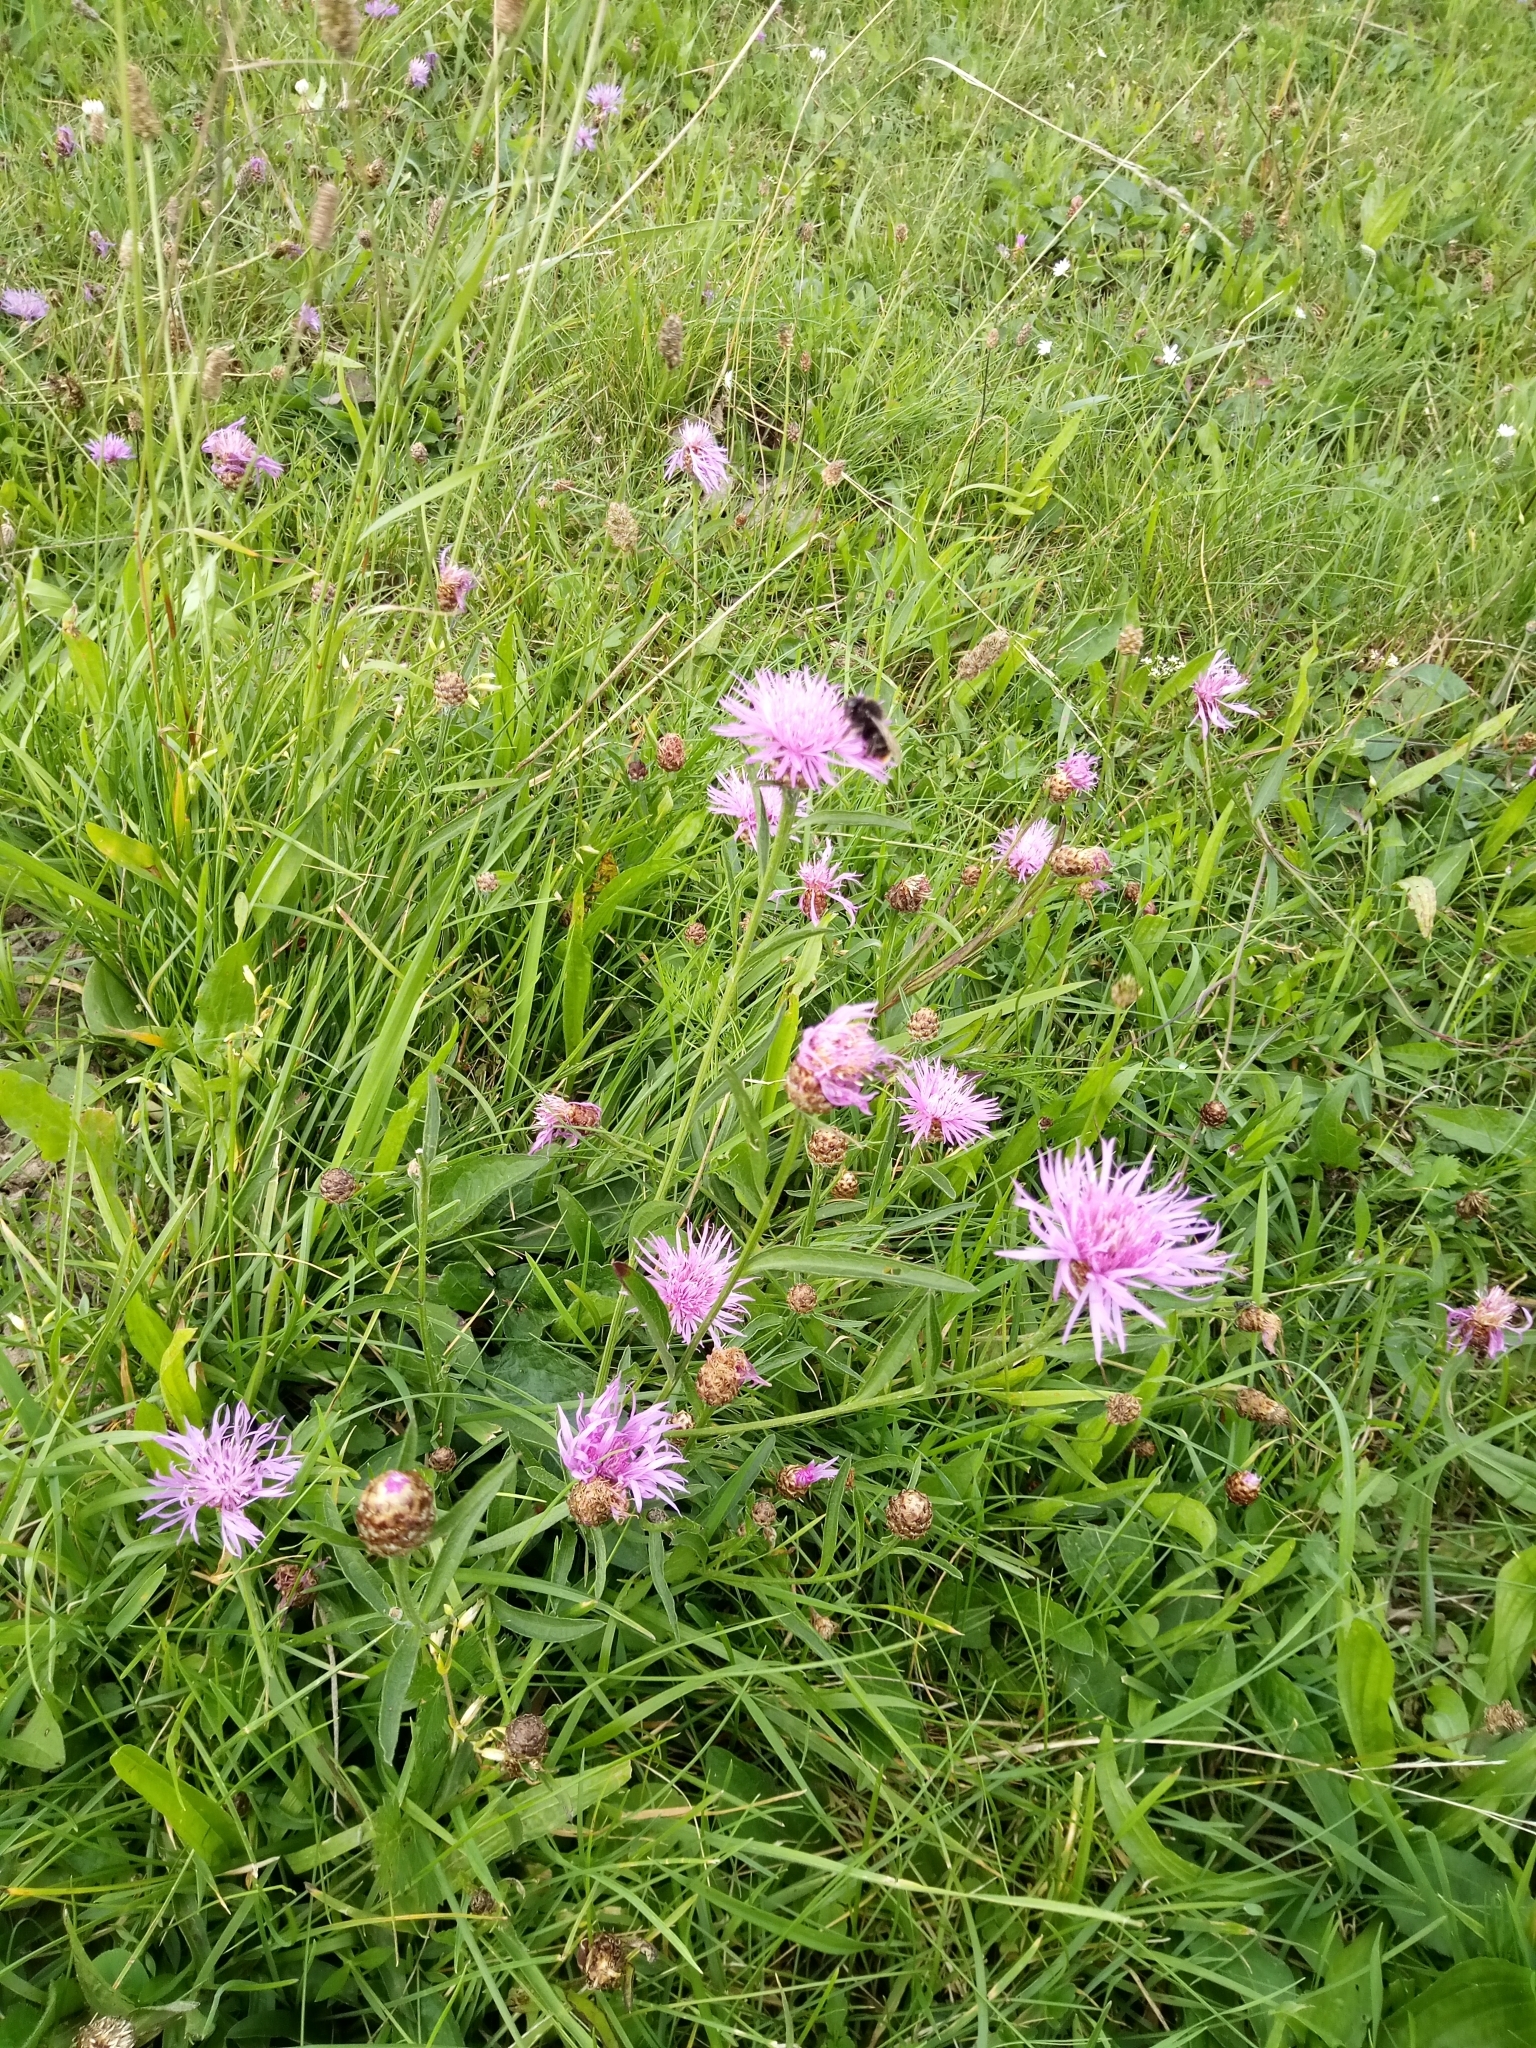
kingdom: Plantae
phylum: Tracheophyta
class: Magnoliopsida
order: Asterales
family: Asteraceae
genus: Centaurea
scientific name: Centaurea jacea
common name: Brown knapweed
